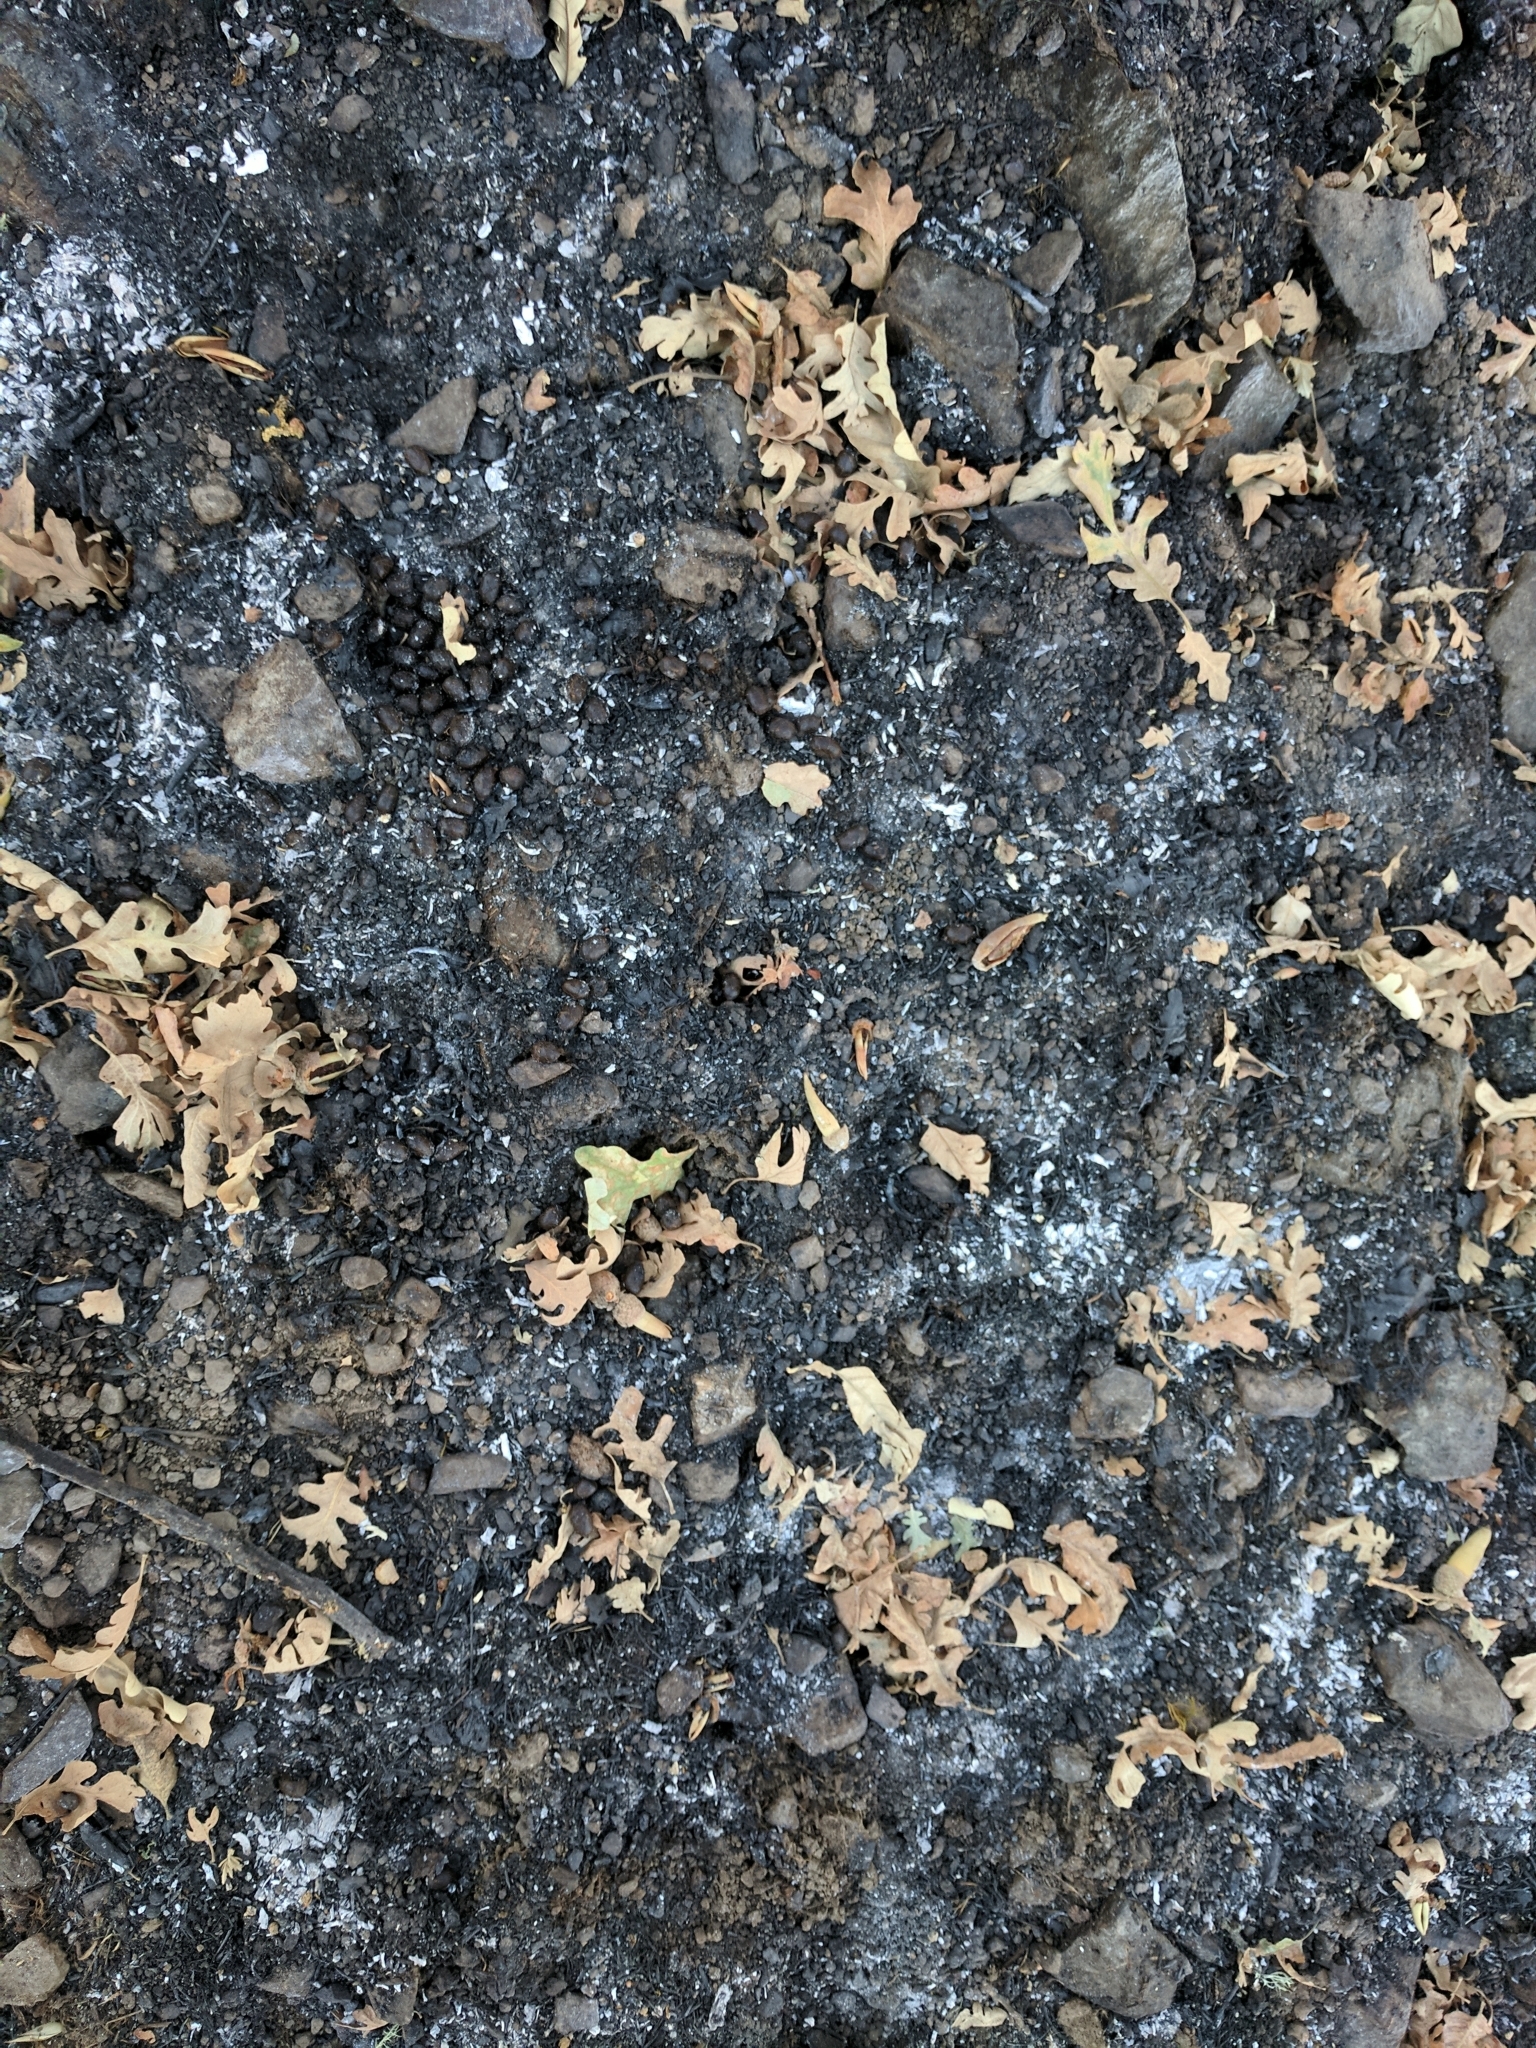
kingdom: Animalia
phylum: Chordata
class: Mammalia
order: Artiodactyla
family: Cervidae
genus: Odocoileus
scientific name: Odocoileus hemionus
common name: Mule deer
